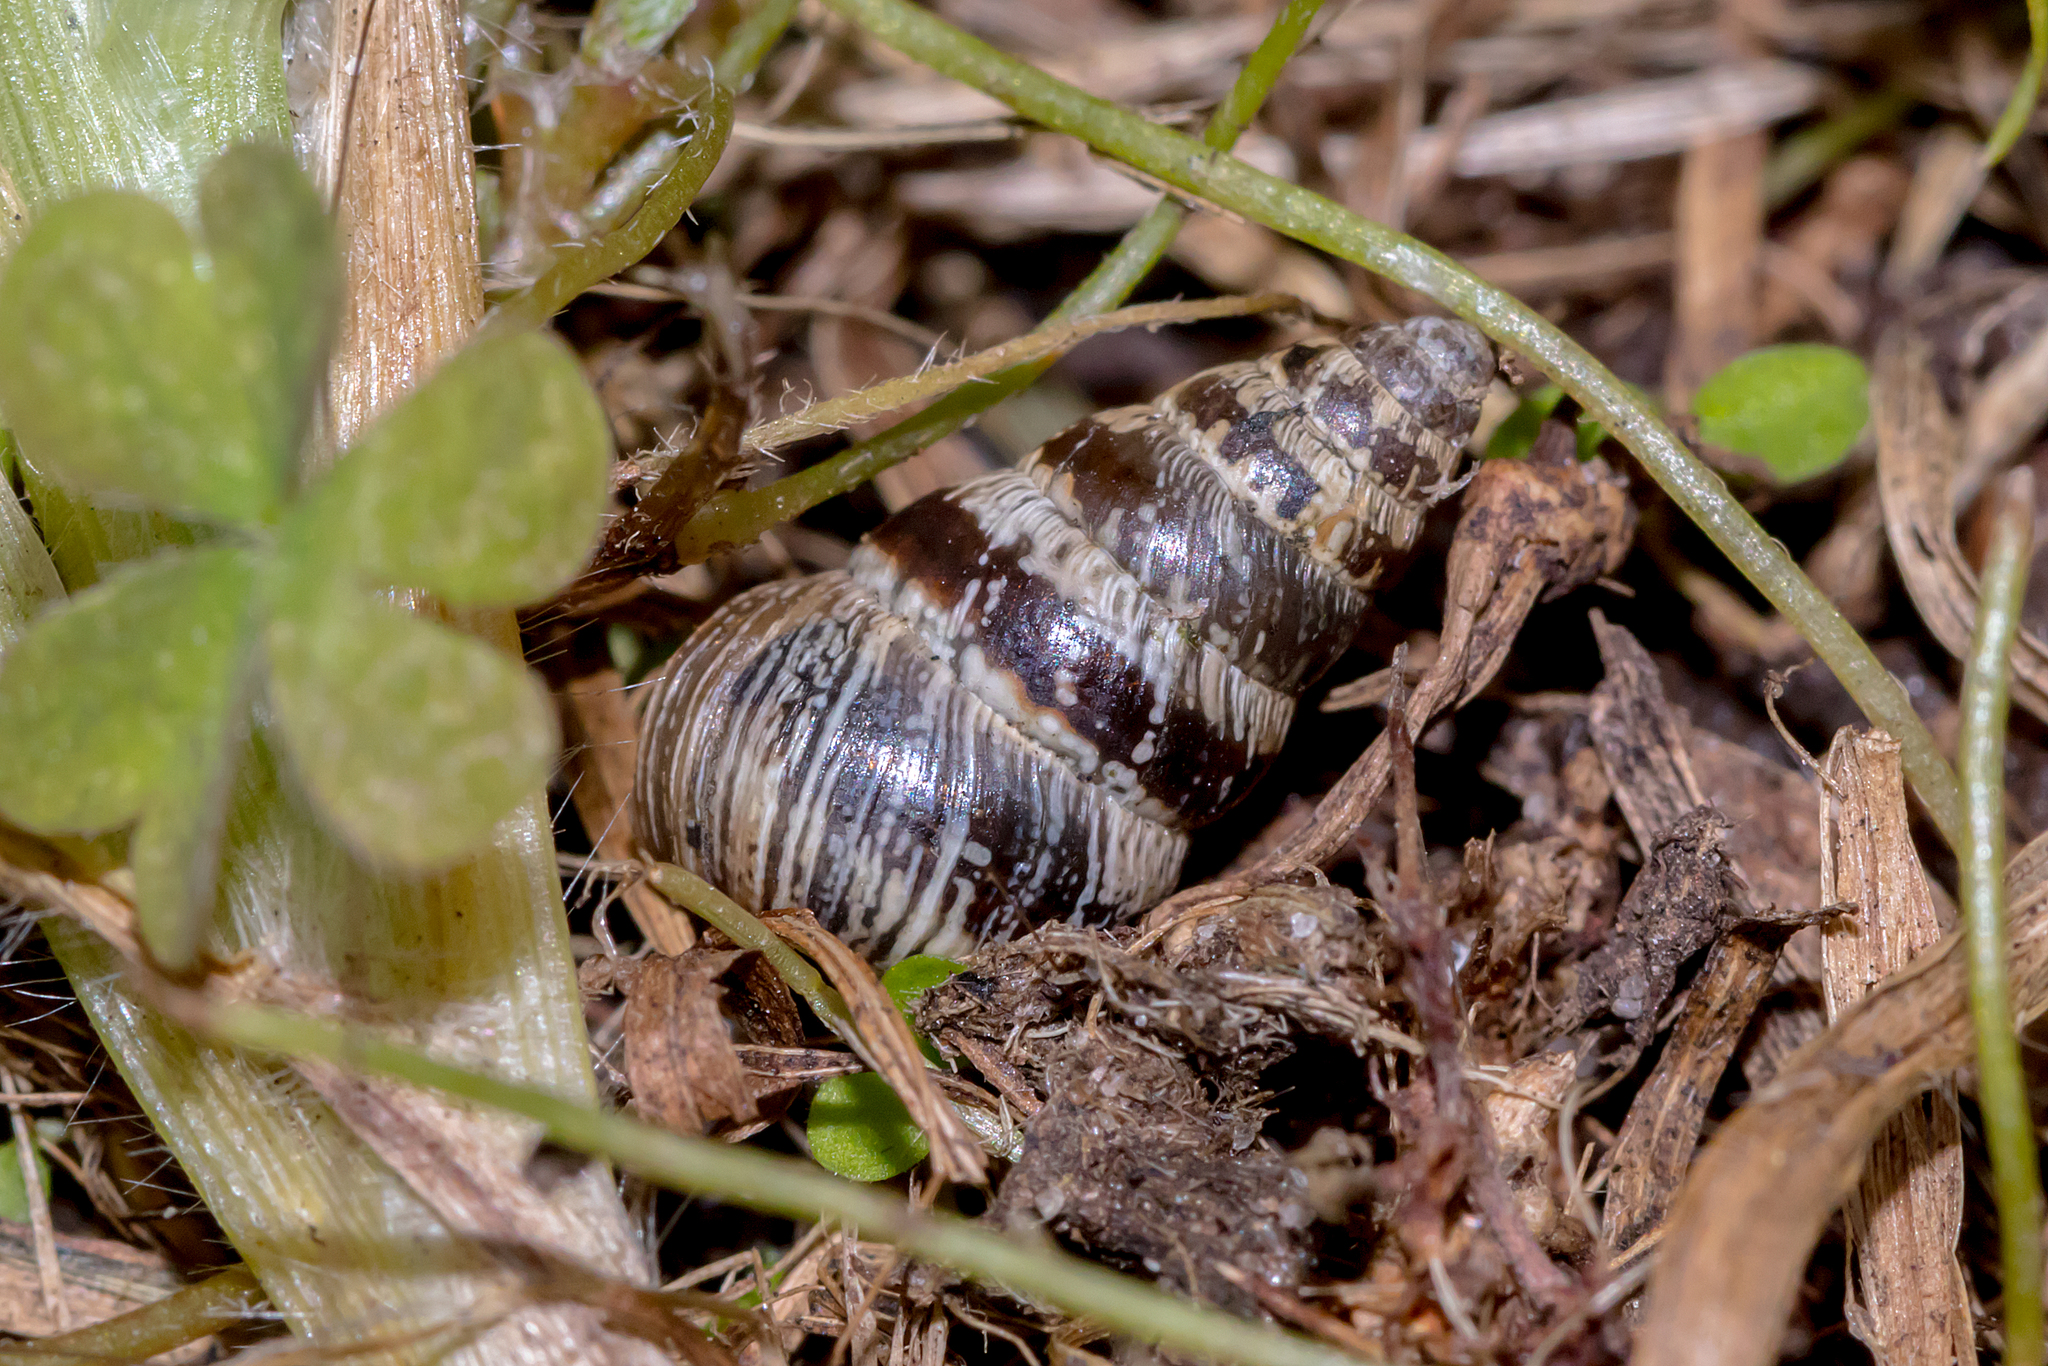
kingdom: Animalia
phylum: Mollusca
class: Gastropoda
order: Stylommatophora
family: Geomitridae
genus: Cochlicella
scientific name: Cochlicella barbara
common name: Potbellied helicellid
